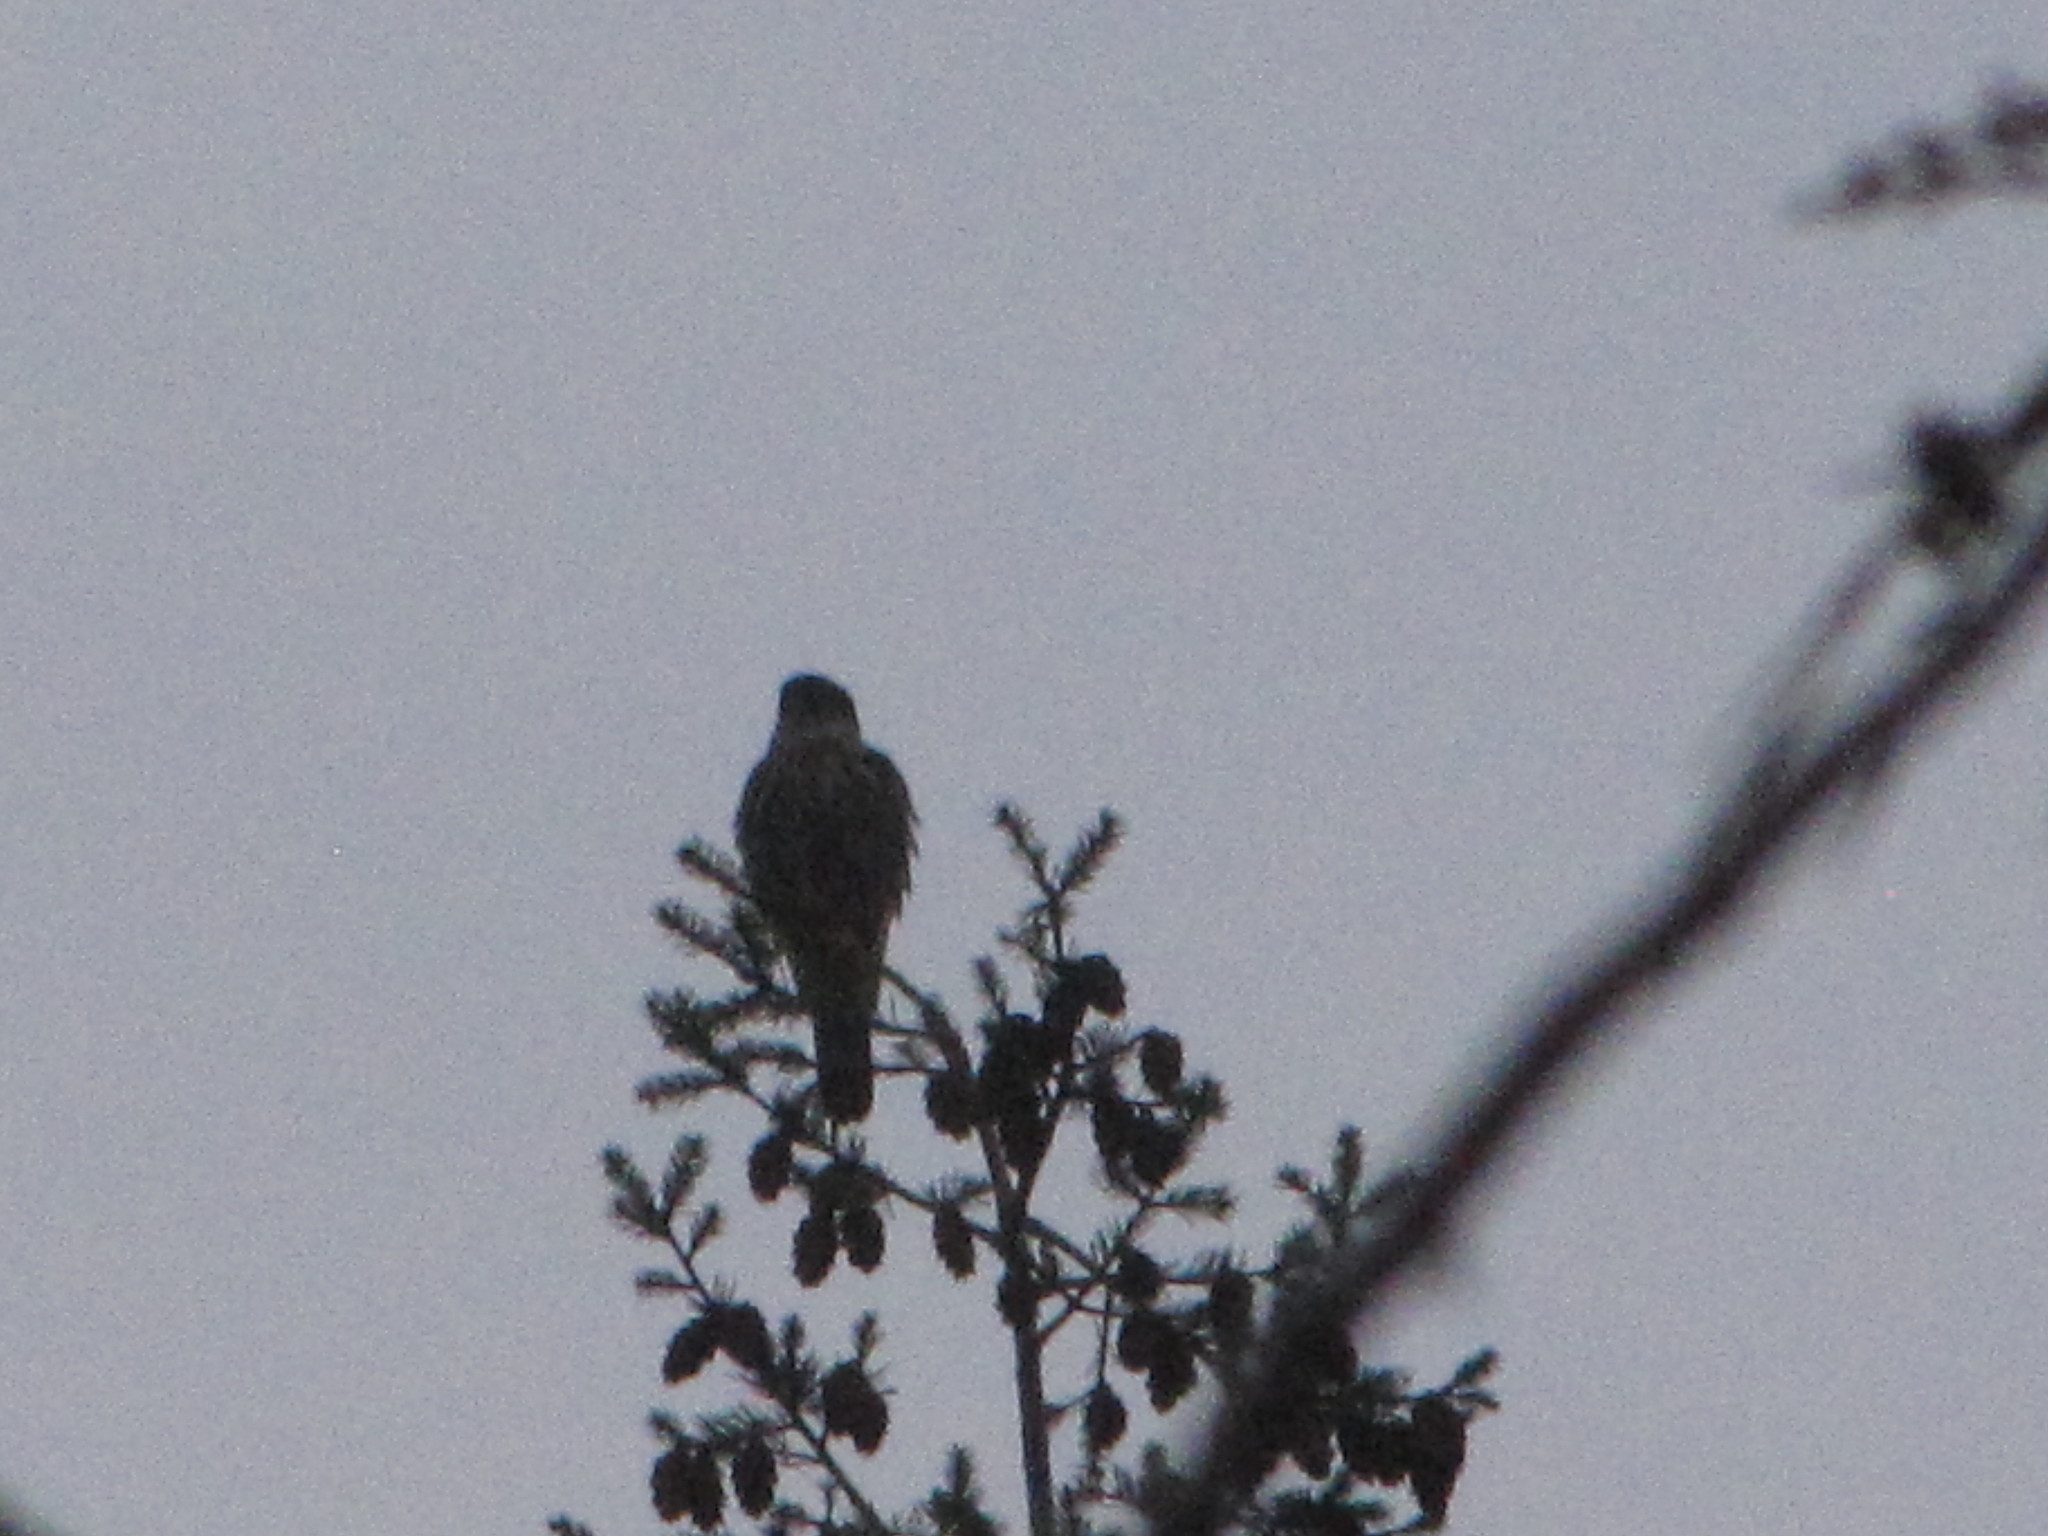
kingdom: Animalia
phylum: Chordata
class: Aves
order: Falconiformes
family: Falconidae
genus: Falco
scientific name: Falco columbarius
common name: Merlin
